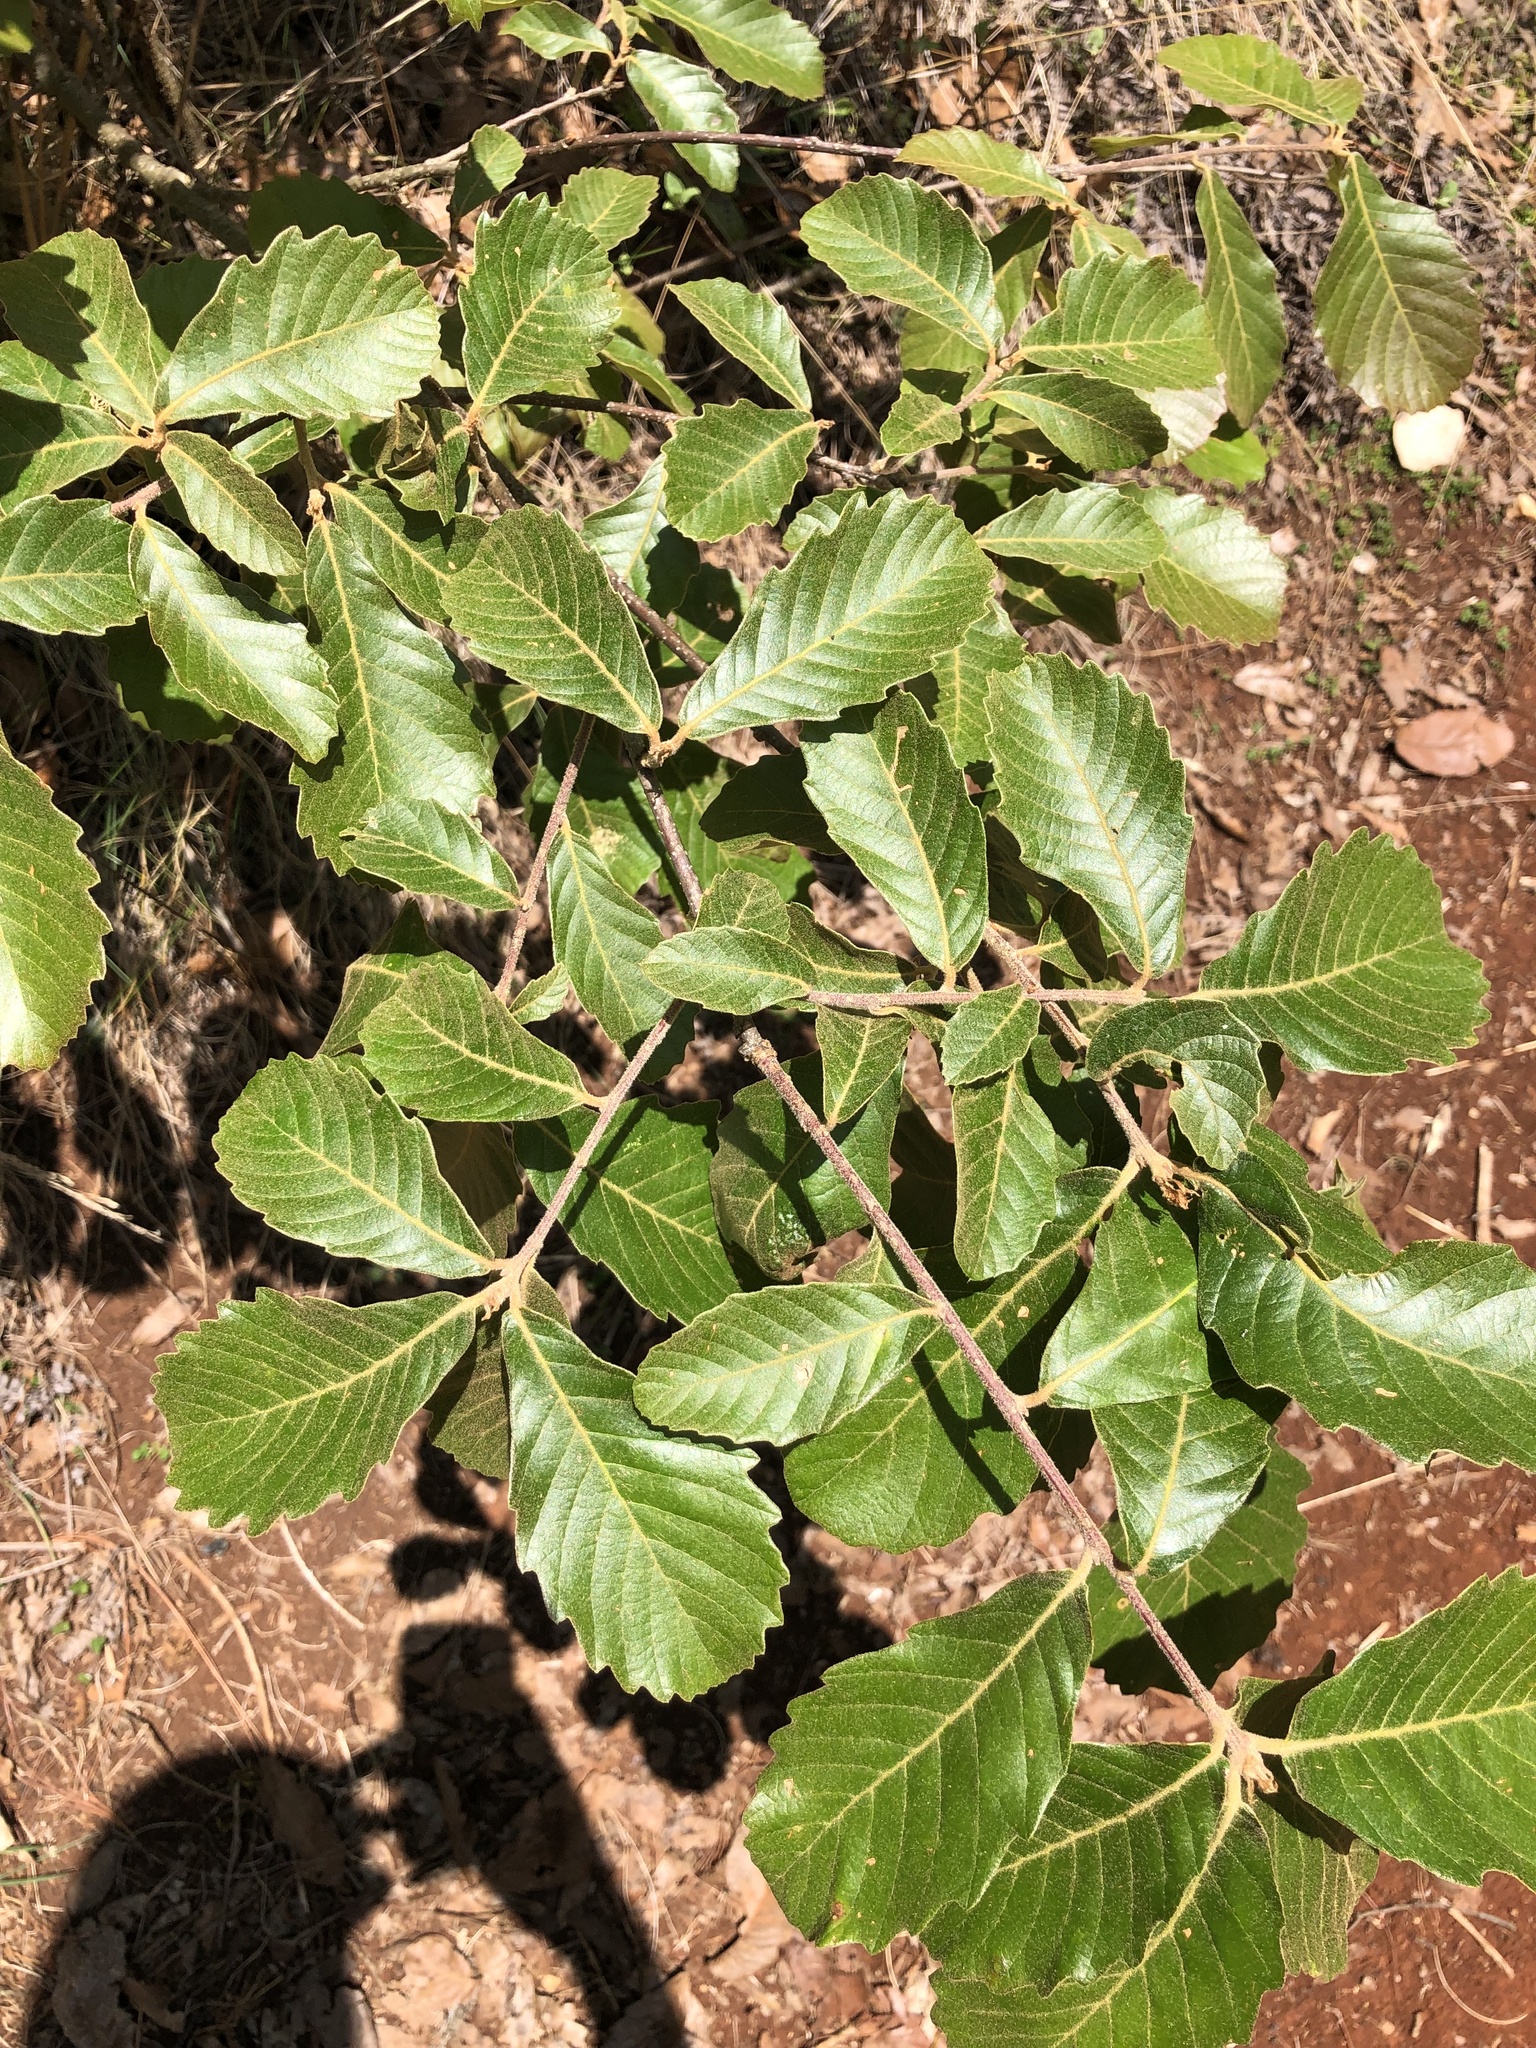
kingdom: Plantae
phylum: Tracheophyta
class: Magnoliopsida
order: Fagales
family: Fagaceae
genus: Quercus
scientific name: Quercus segoviensis
